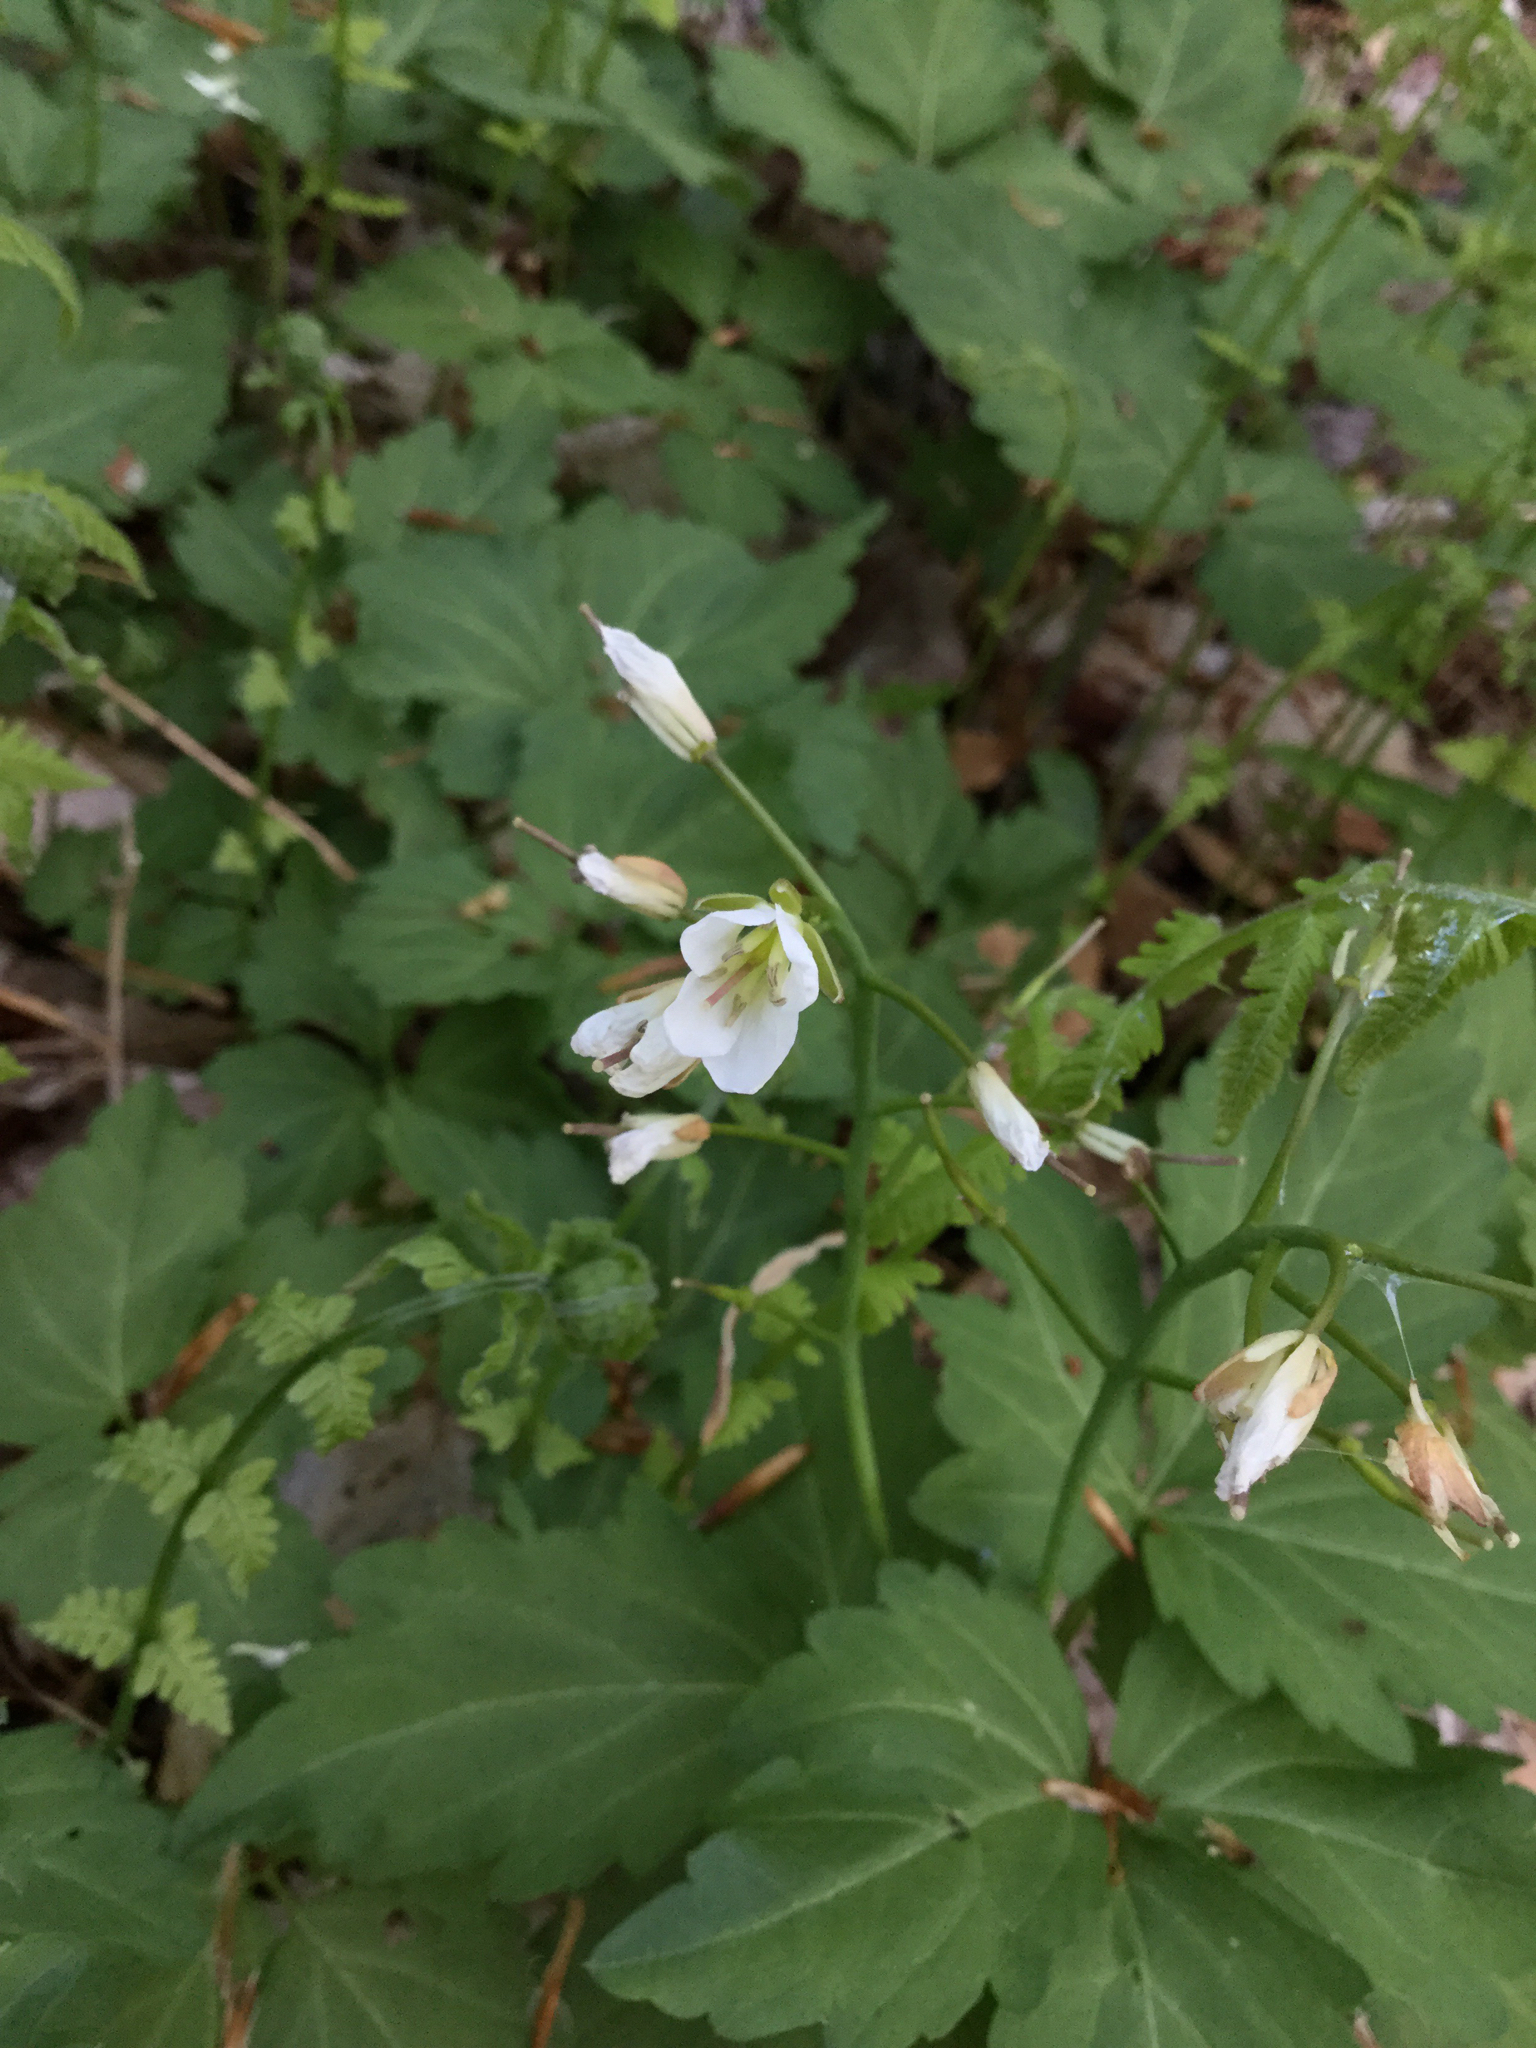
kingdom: Plantae
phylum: Tracheophyta
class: Magnoliopsida
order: Brassicales
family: Brassicaceae
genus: Cardamine
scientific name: Cardamine diphylla
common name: Broad-leaved toothwort
